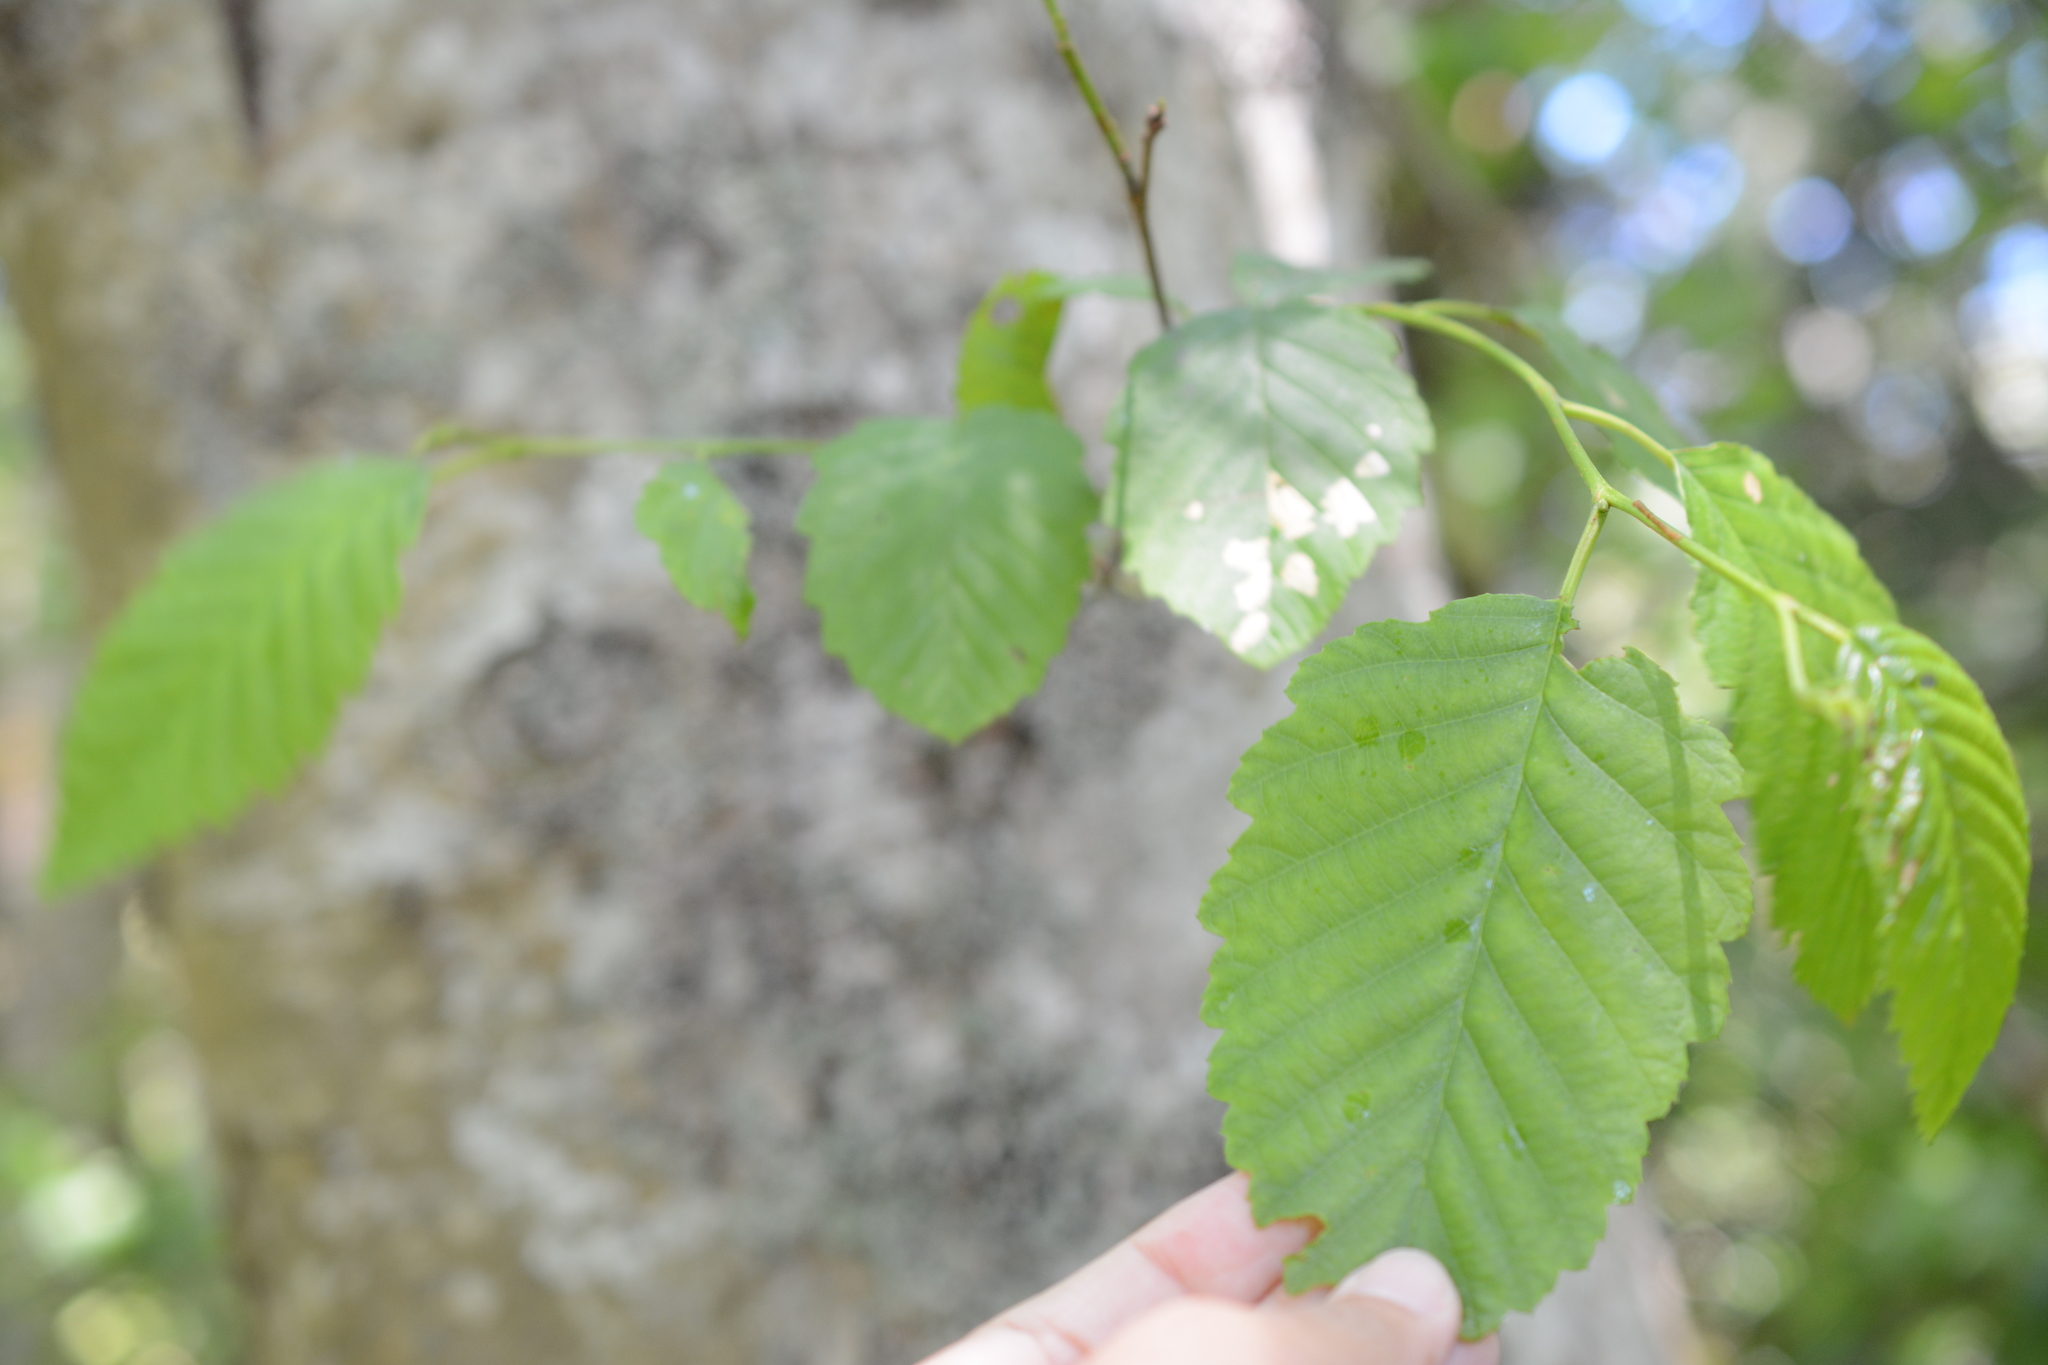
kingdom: Plantae
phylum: Tracheophyta
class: Magnoliopsida
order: Fagales
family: Betulaceae
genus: Alnus
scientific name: Alnus rubra
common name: Red alder
